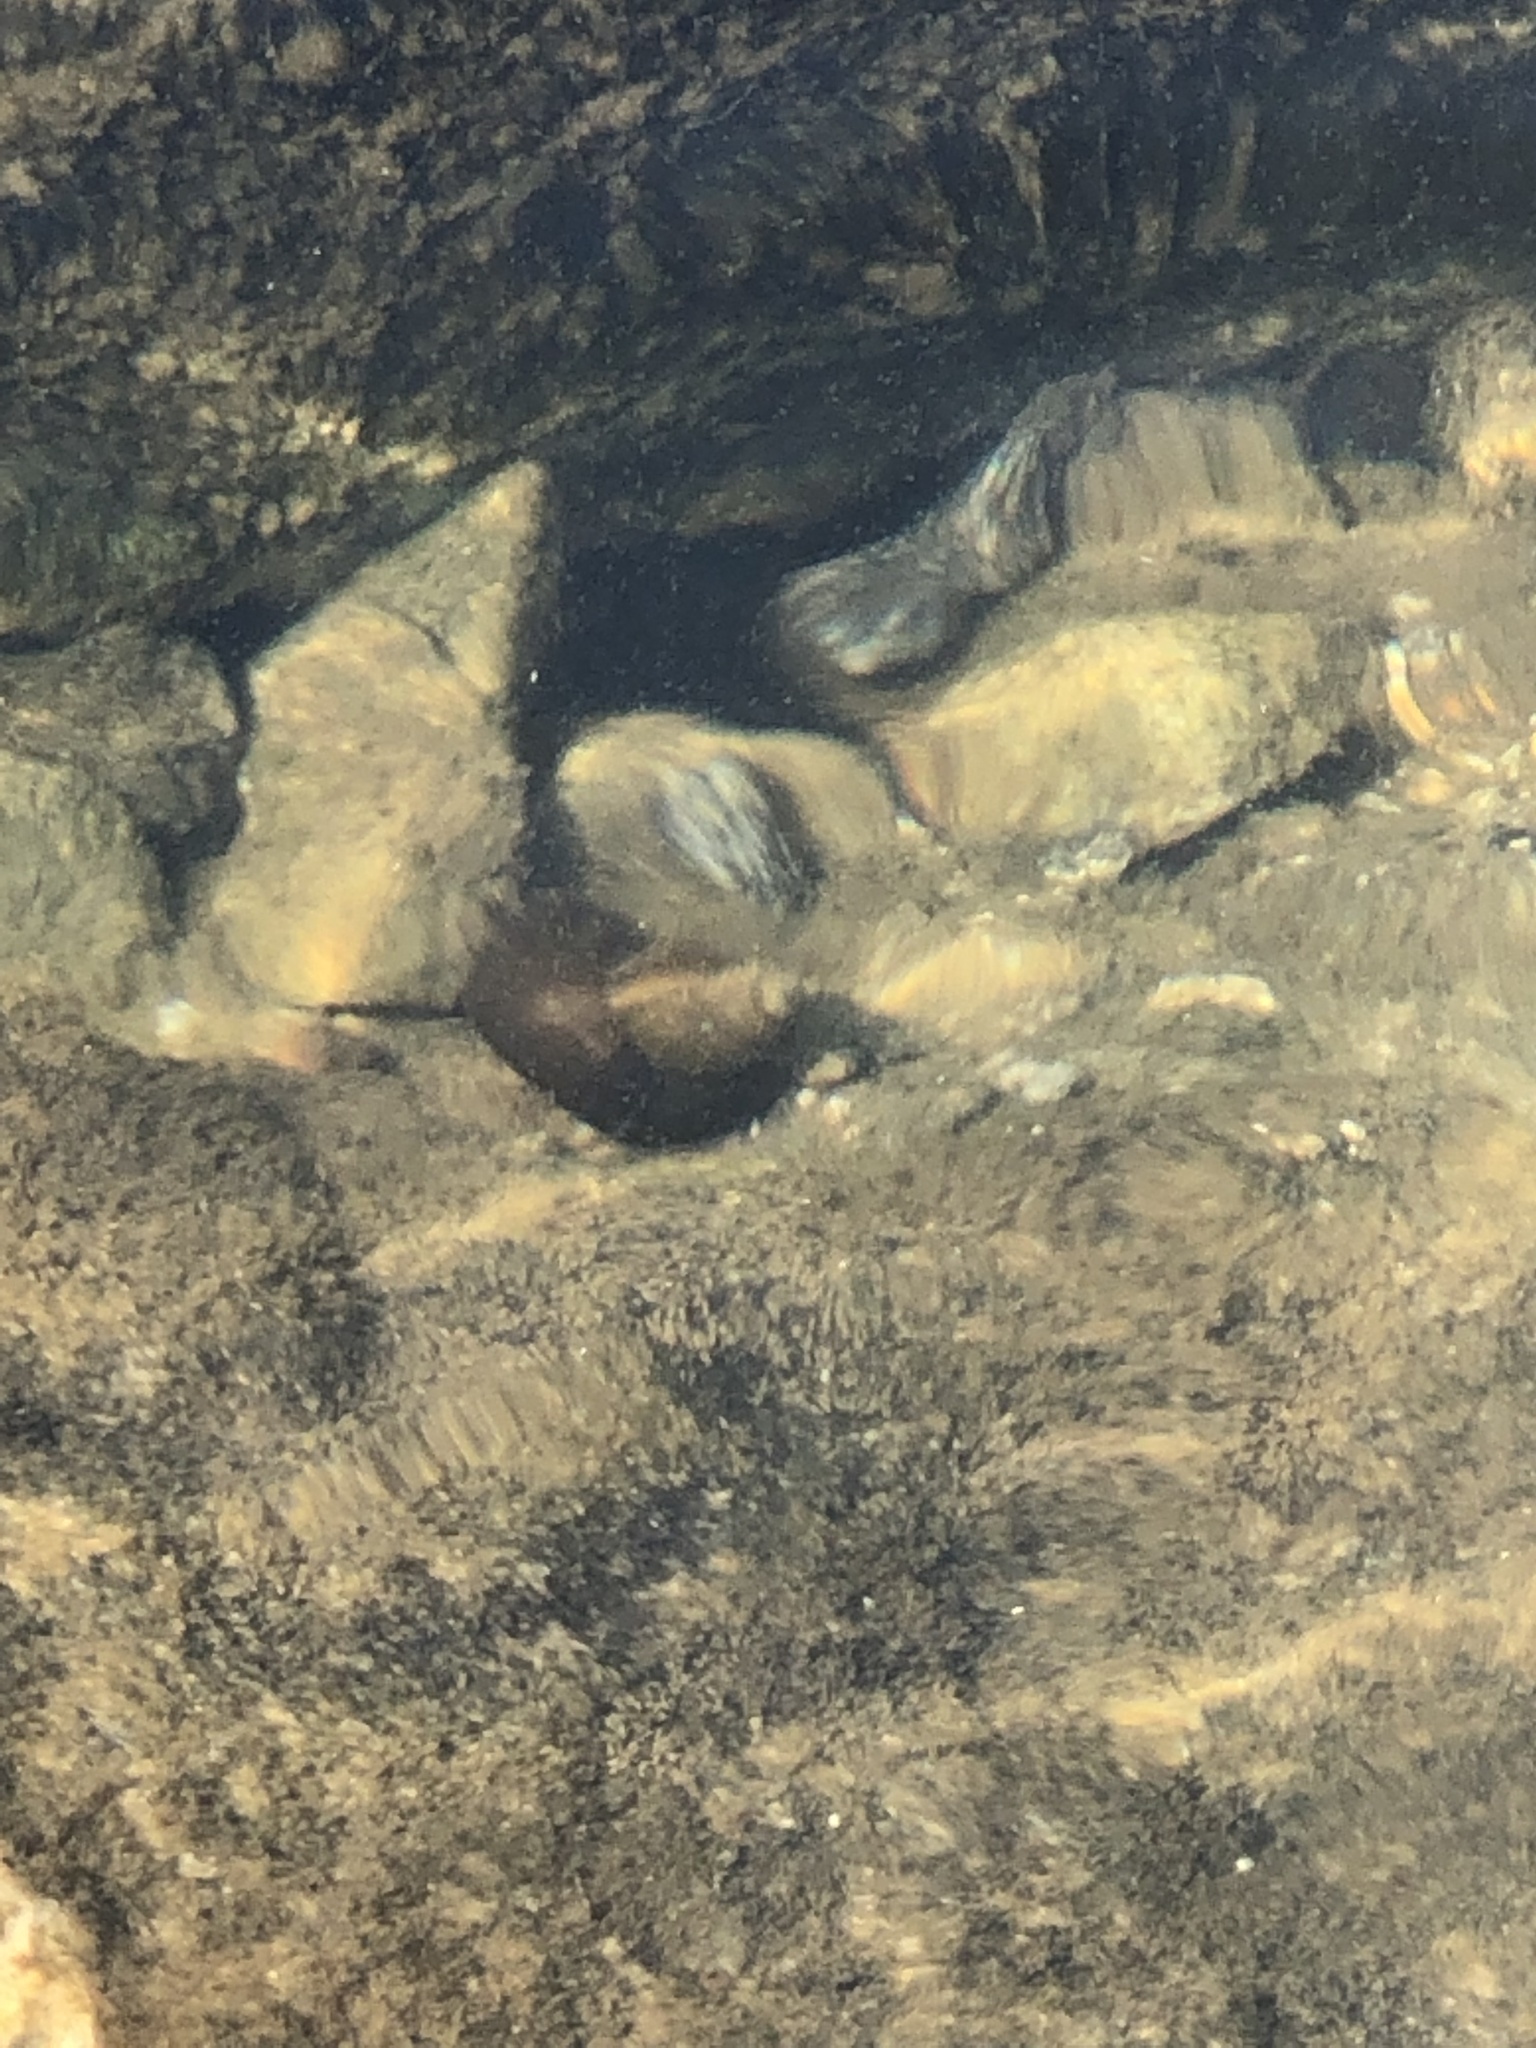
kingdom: Animalia
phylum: Mollusca
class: Gastropoda
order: Architaenioglossa
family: Viviparidae
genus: Cipangopaludina
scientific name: Cipangopaludina chinensis
